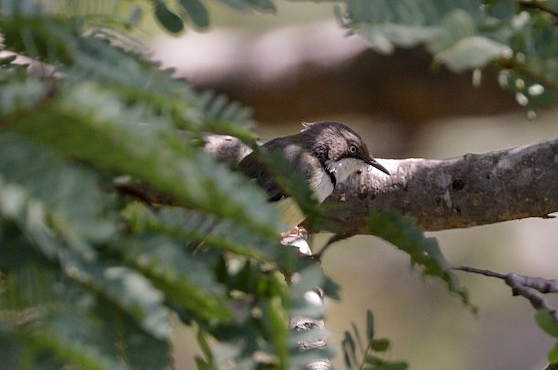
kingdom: Animalia
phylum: Chordata
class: Aves
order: Passeriformes
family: Cisticolidae
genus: Apalis
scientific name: Apalis thoracica
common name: Bar-throated apalis
